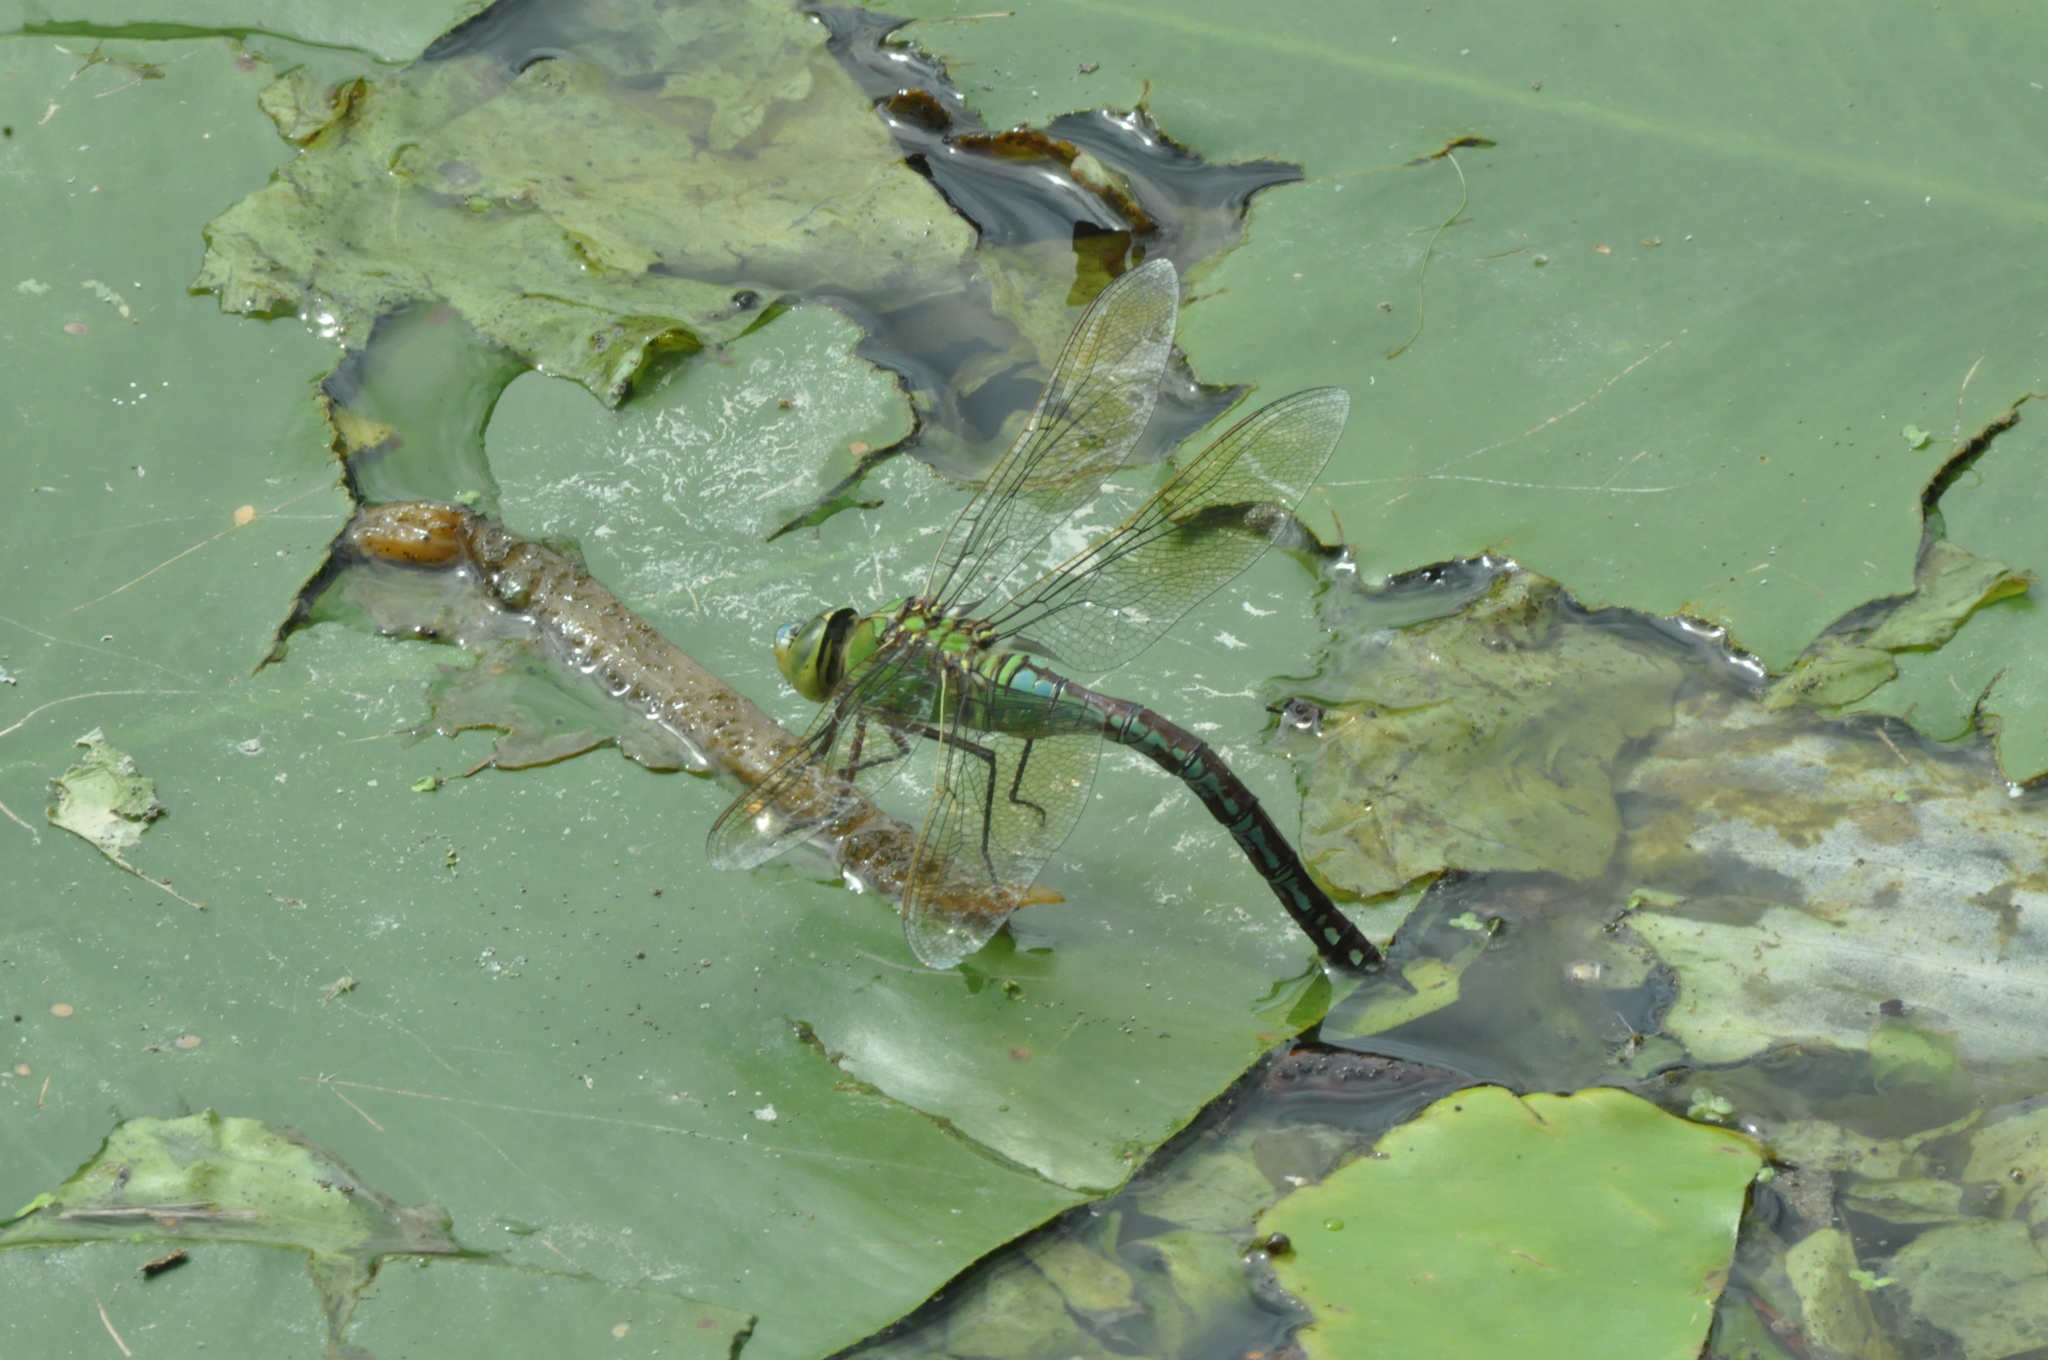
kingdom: Animalia
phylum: Arthropoda
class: Insecta
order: Odonata
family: Aeshnidae
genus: Anax
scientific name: Anax imperator
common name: Emperor dragonfly
